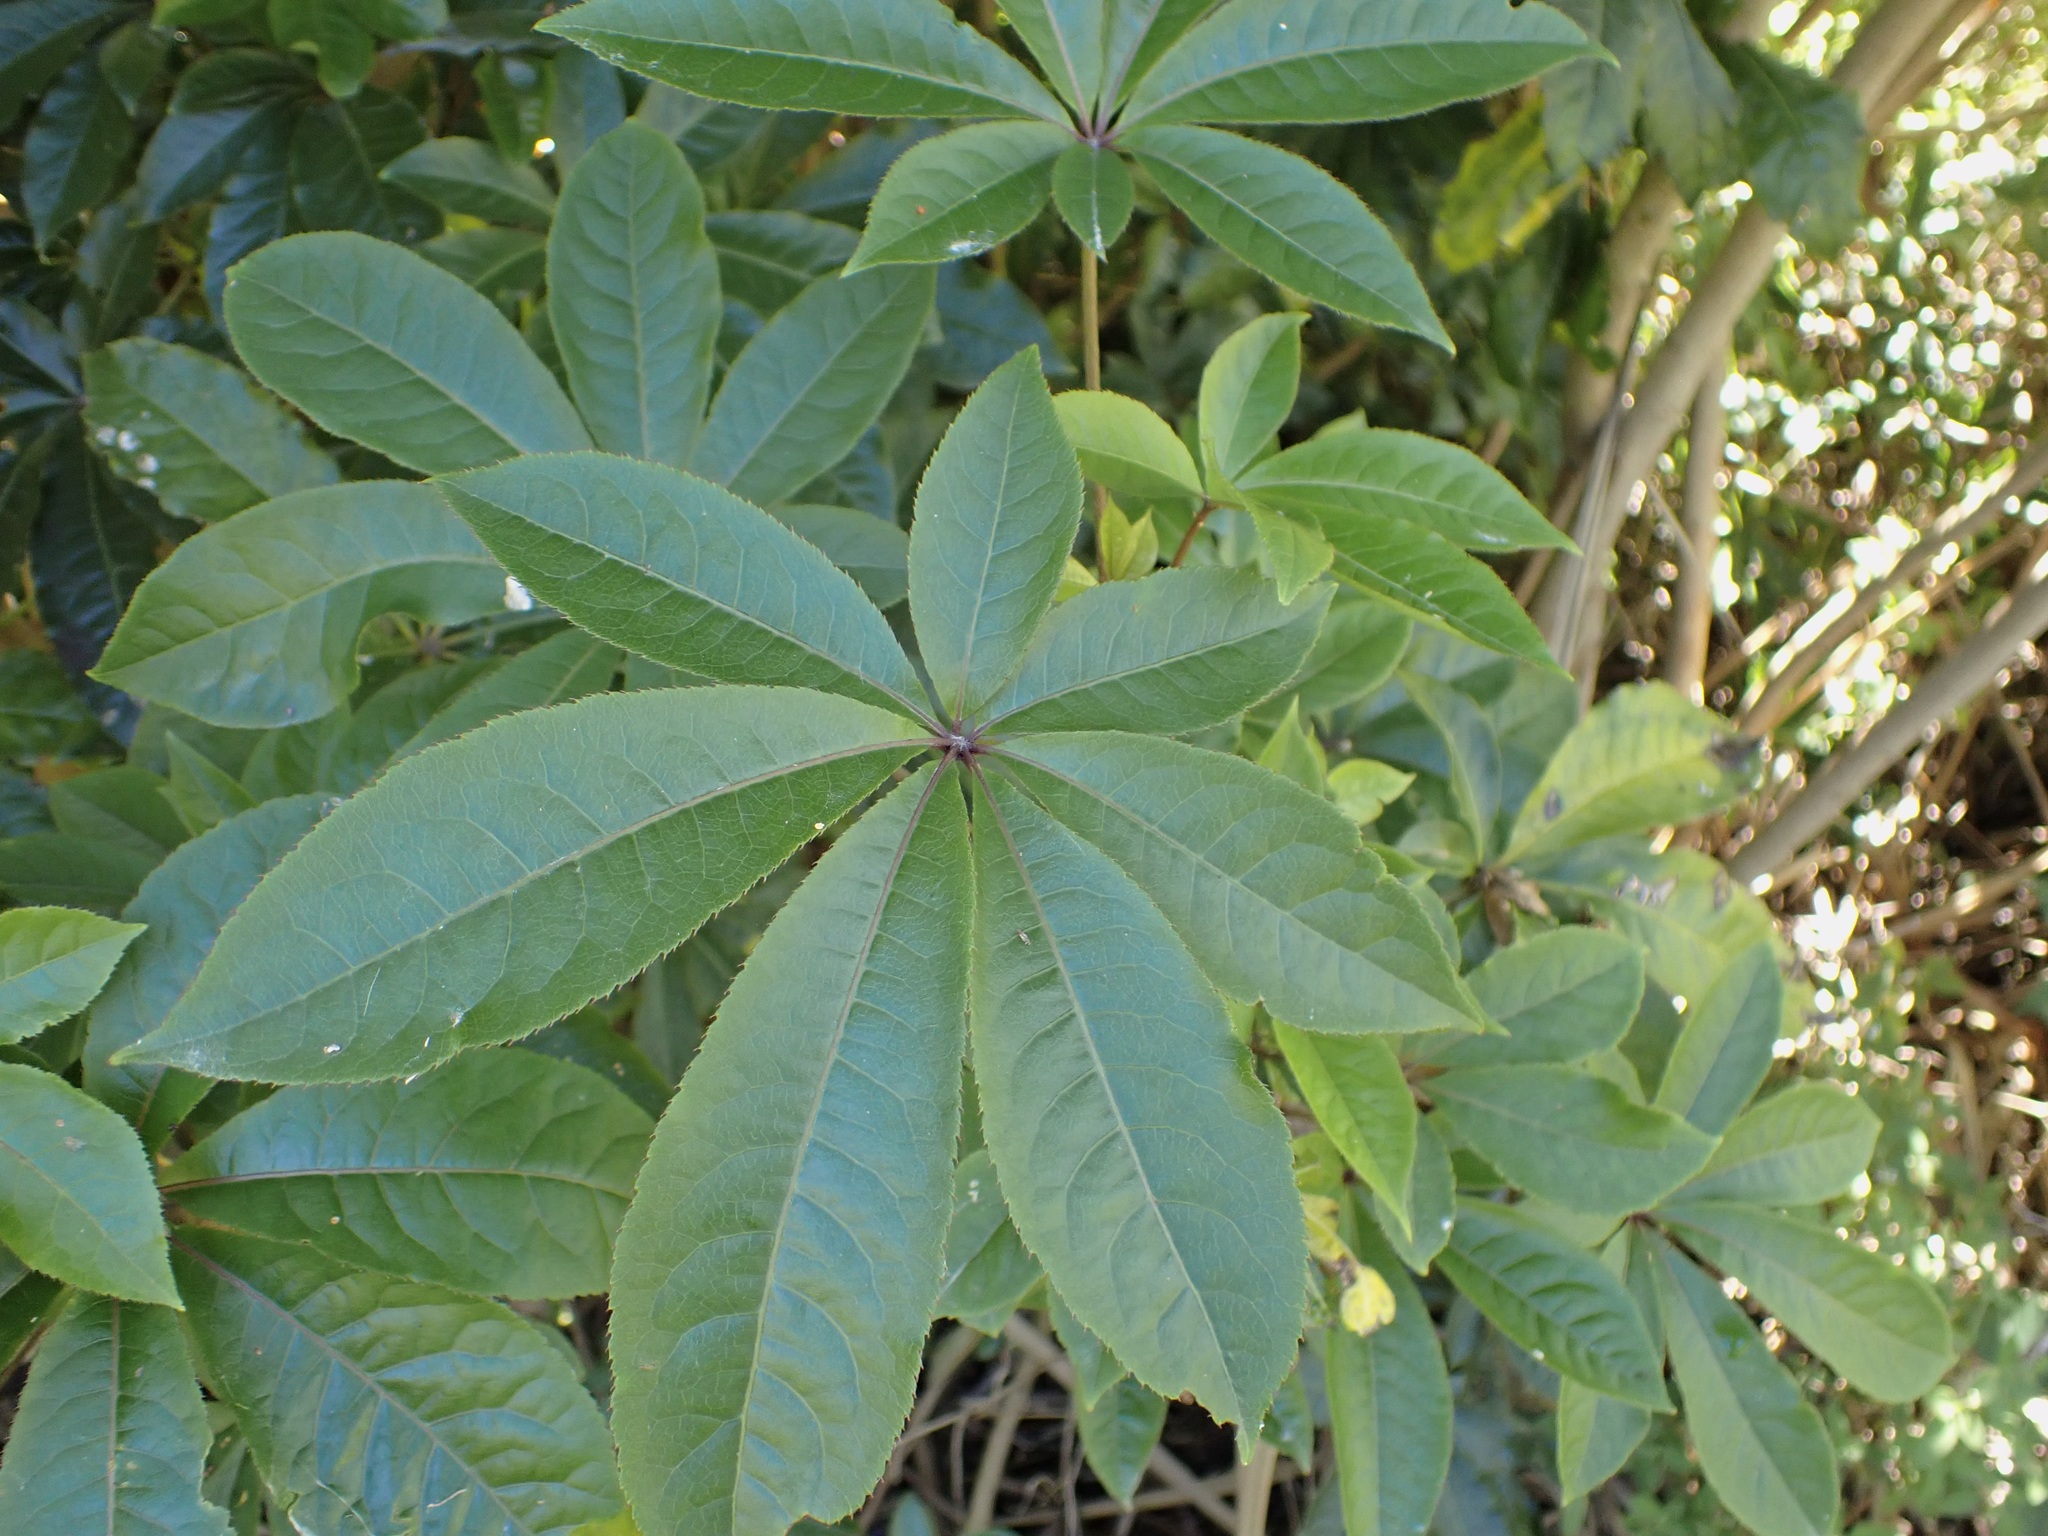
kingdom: Plantae
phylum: Tracheophyta
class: Magnoliopsida
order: Apiales
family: Araliaceae
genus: Schefflera
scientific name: Schefflera digitata
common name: Pate
